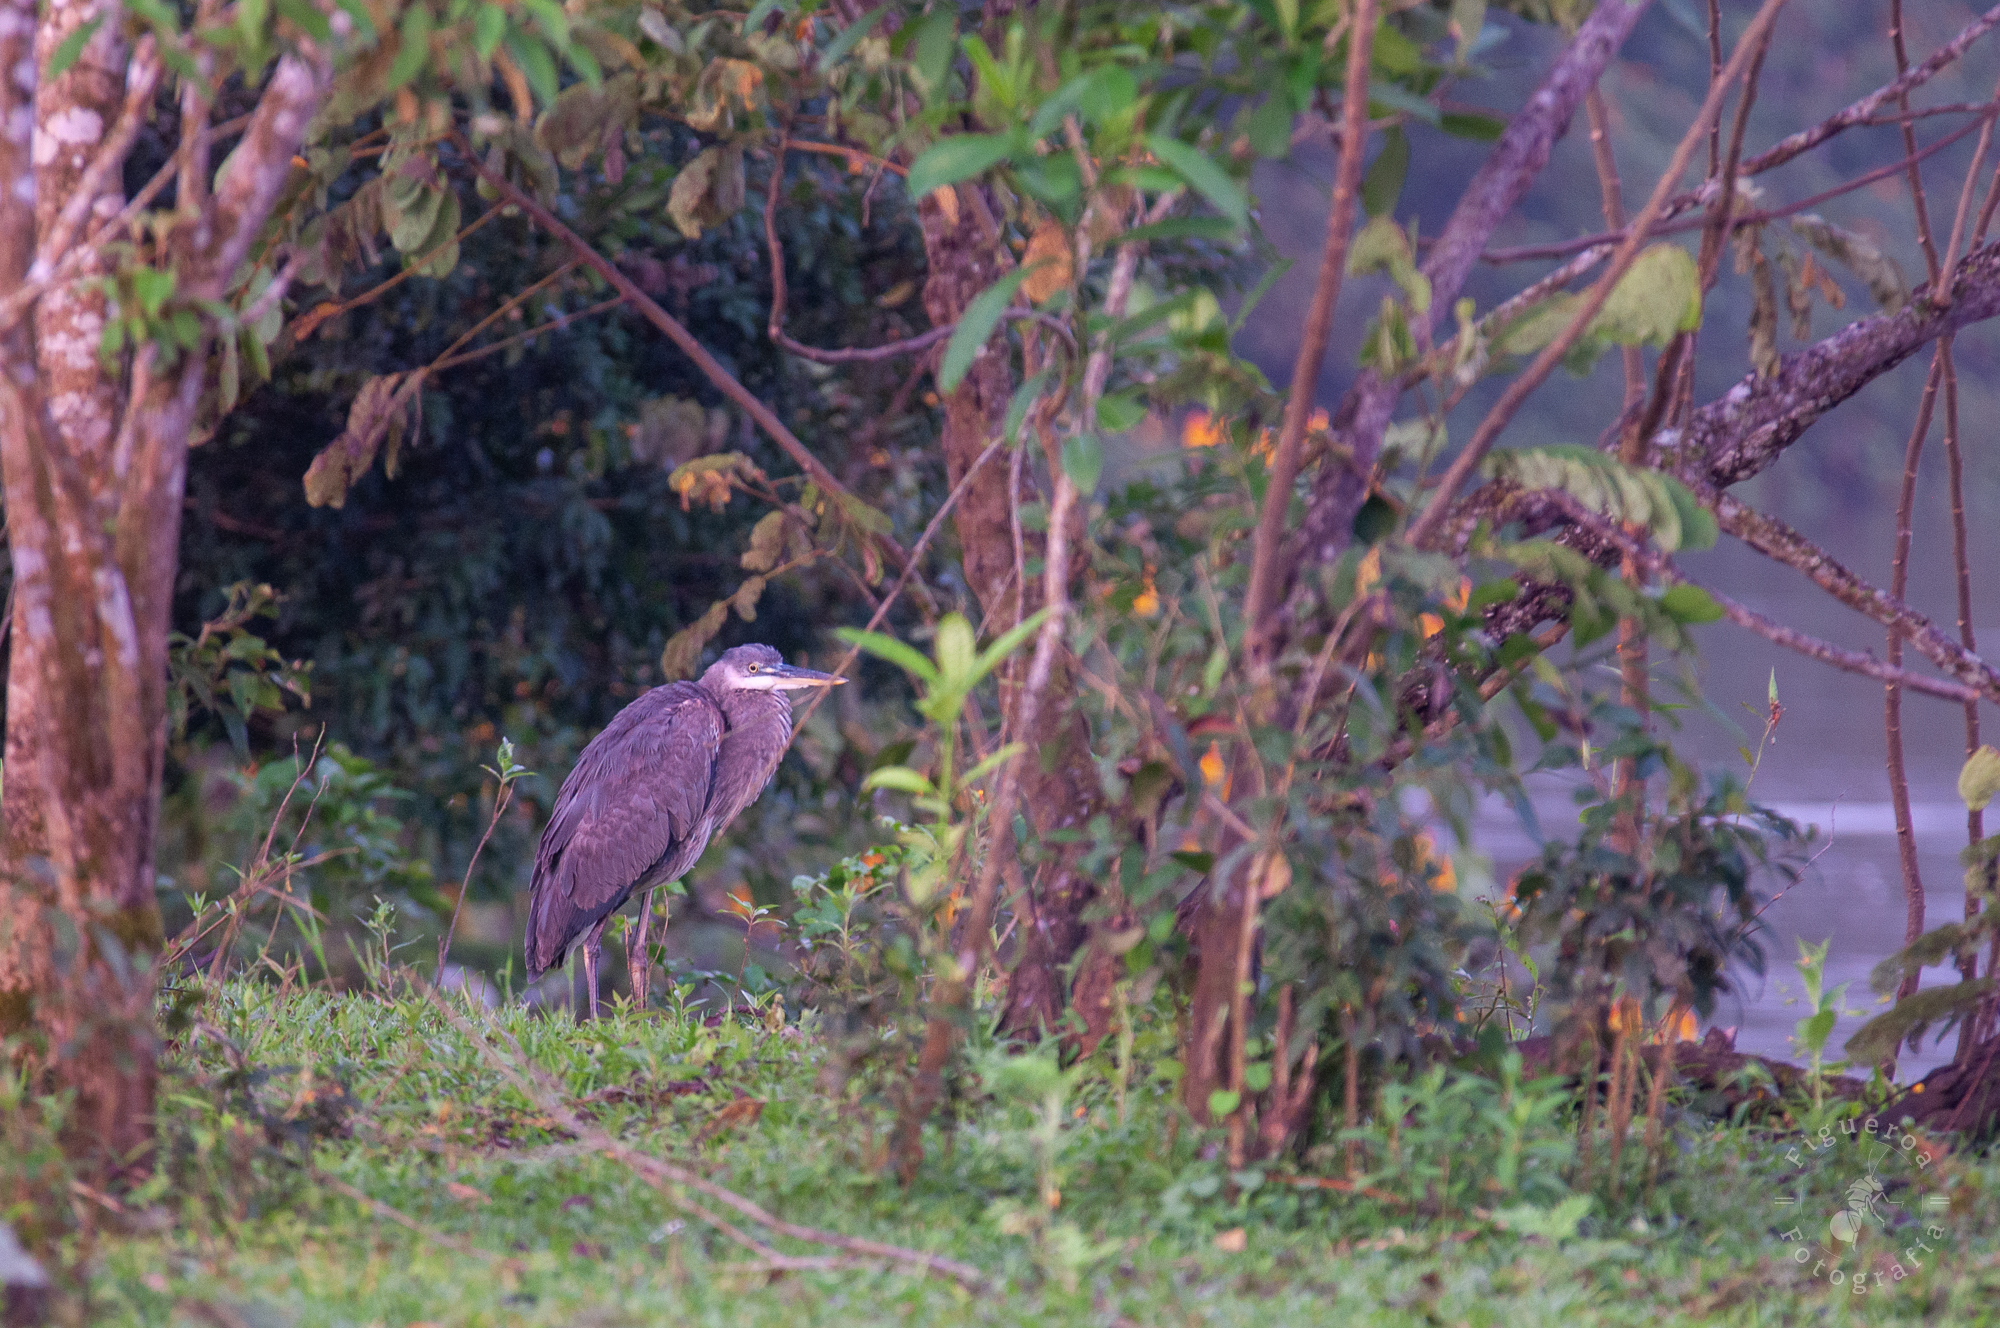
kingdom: Animalia
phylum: Chordata
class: Aves
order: Pelecaniformes
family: Ardeidae
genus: Ardea
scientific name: Ardea herodias
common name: Great blue heron
